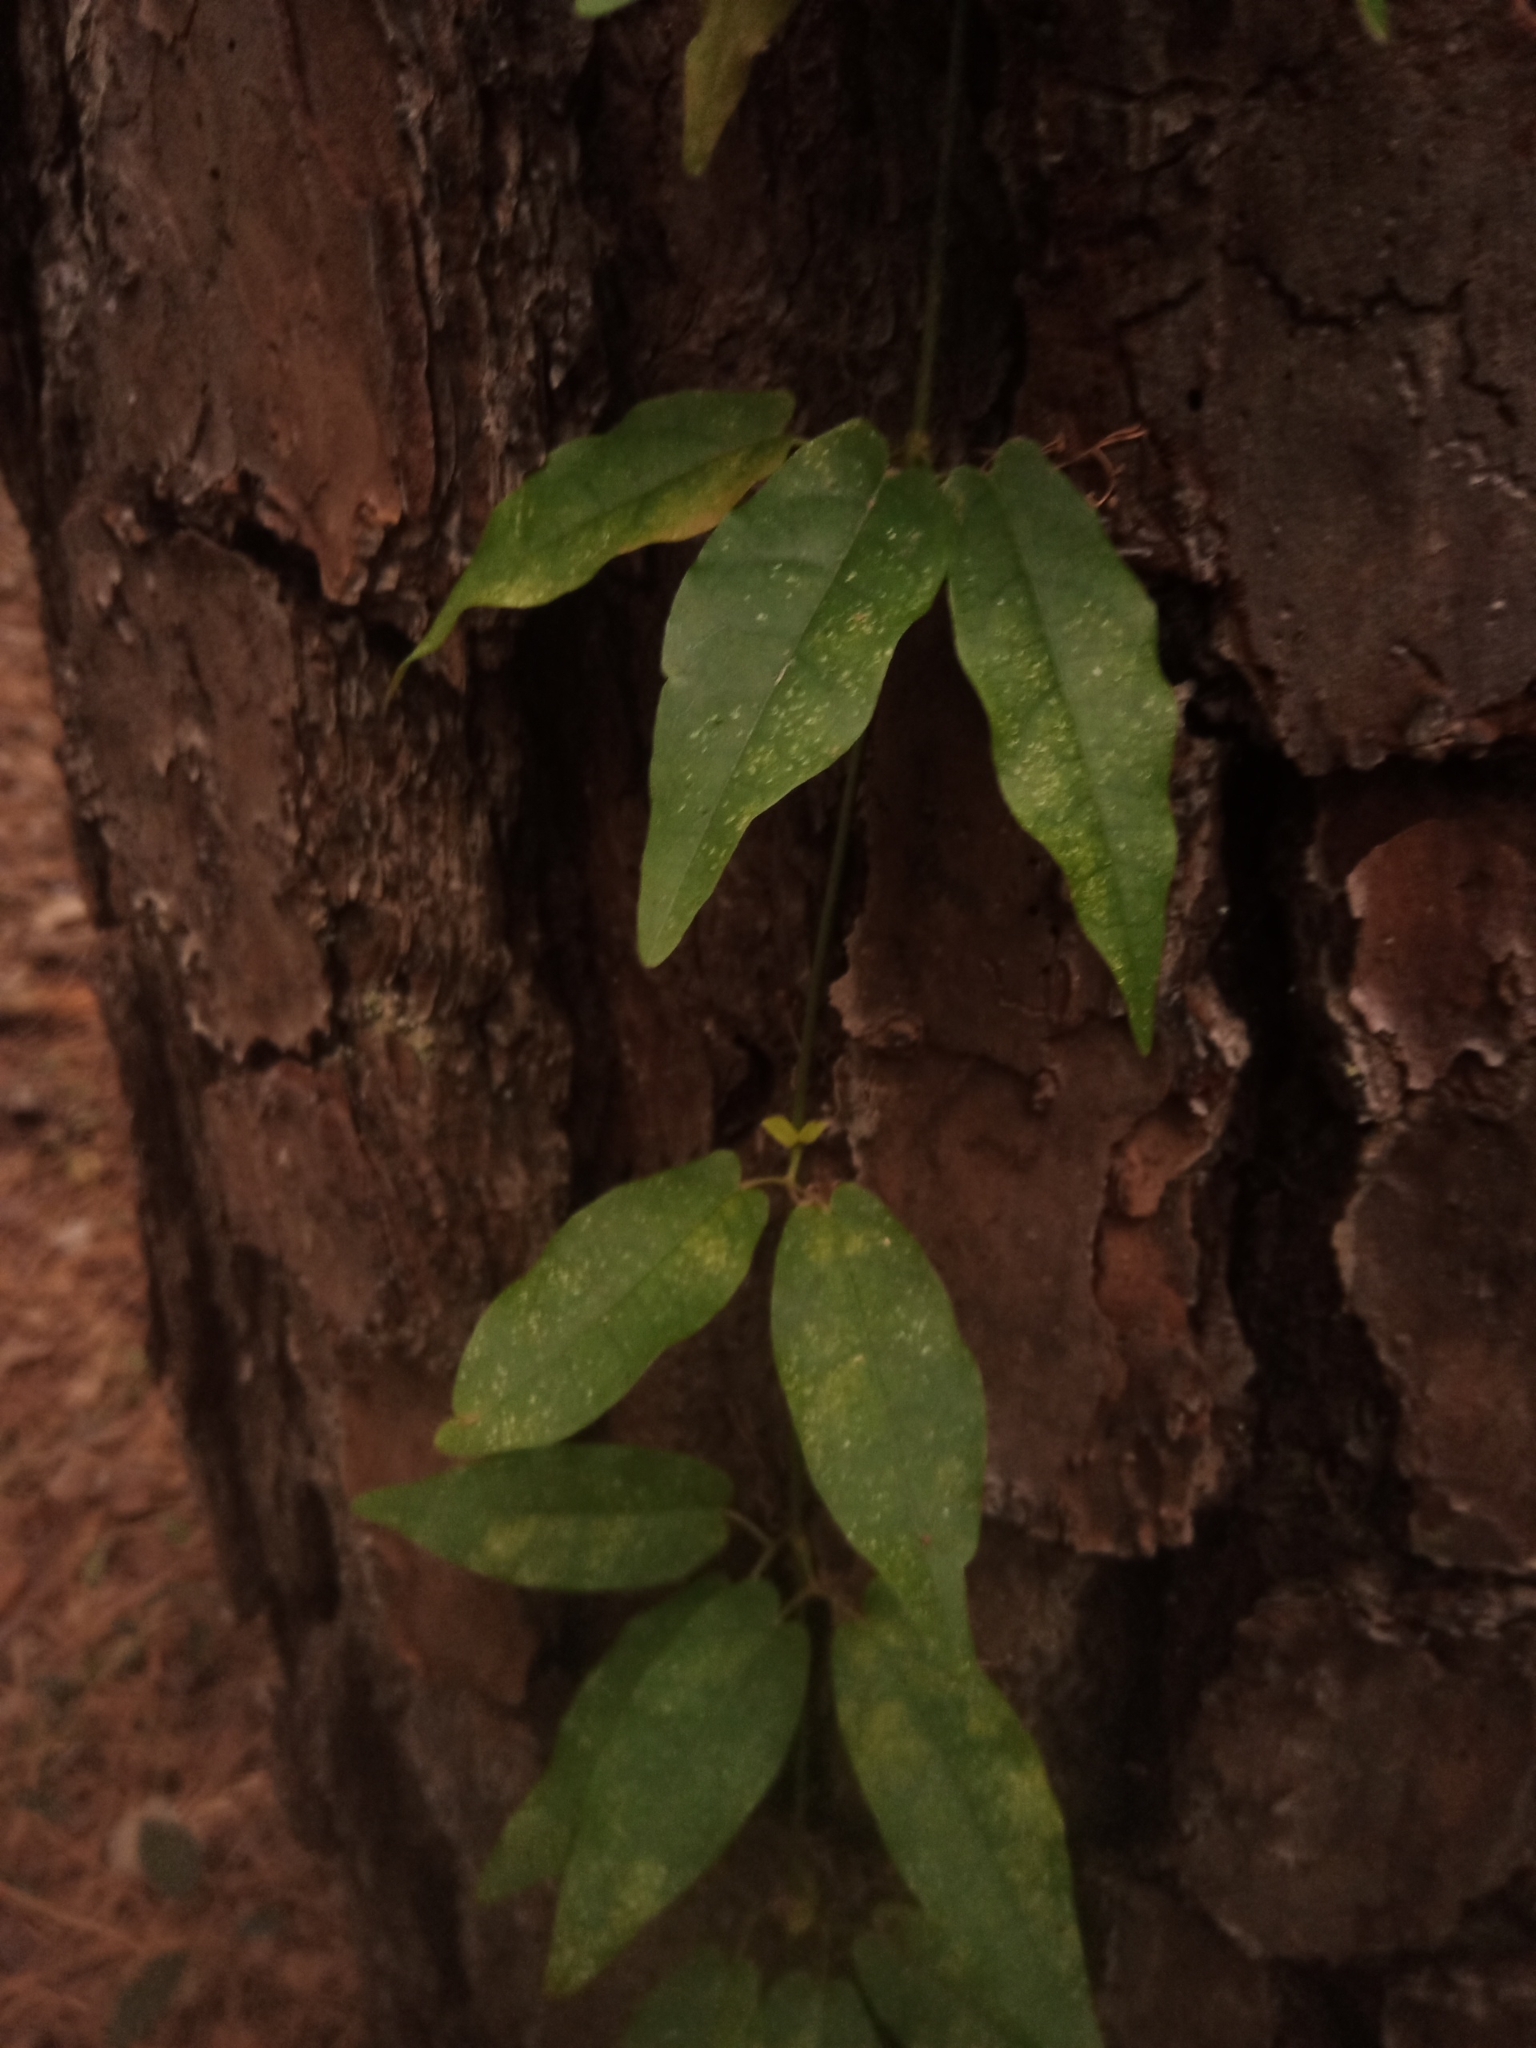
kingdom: Plantae
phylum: Tracheophyta
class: Magnoliopsida
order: Lamiales
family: Bignoniaceae
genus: Bignonia
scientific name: Bignonia capreolata
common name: Crossvine
